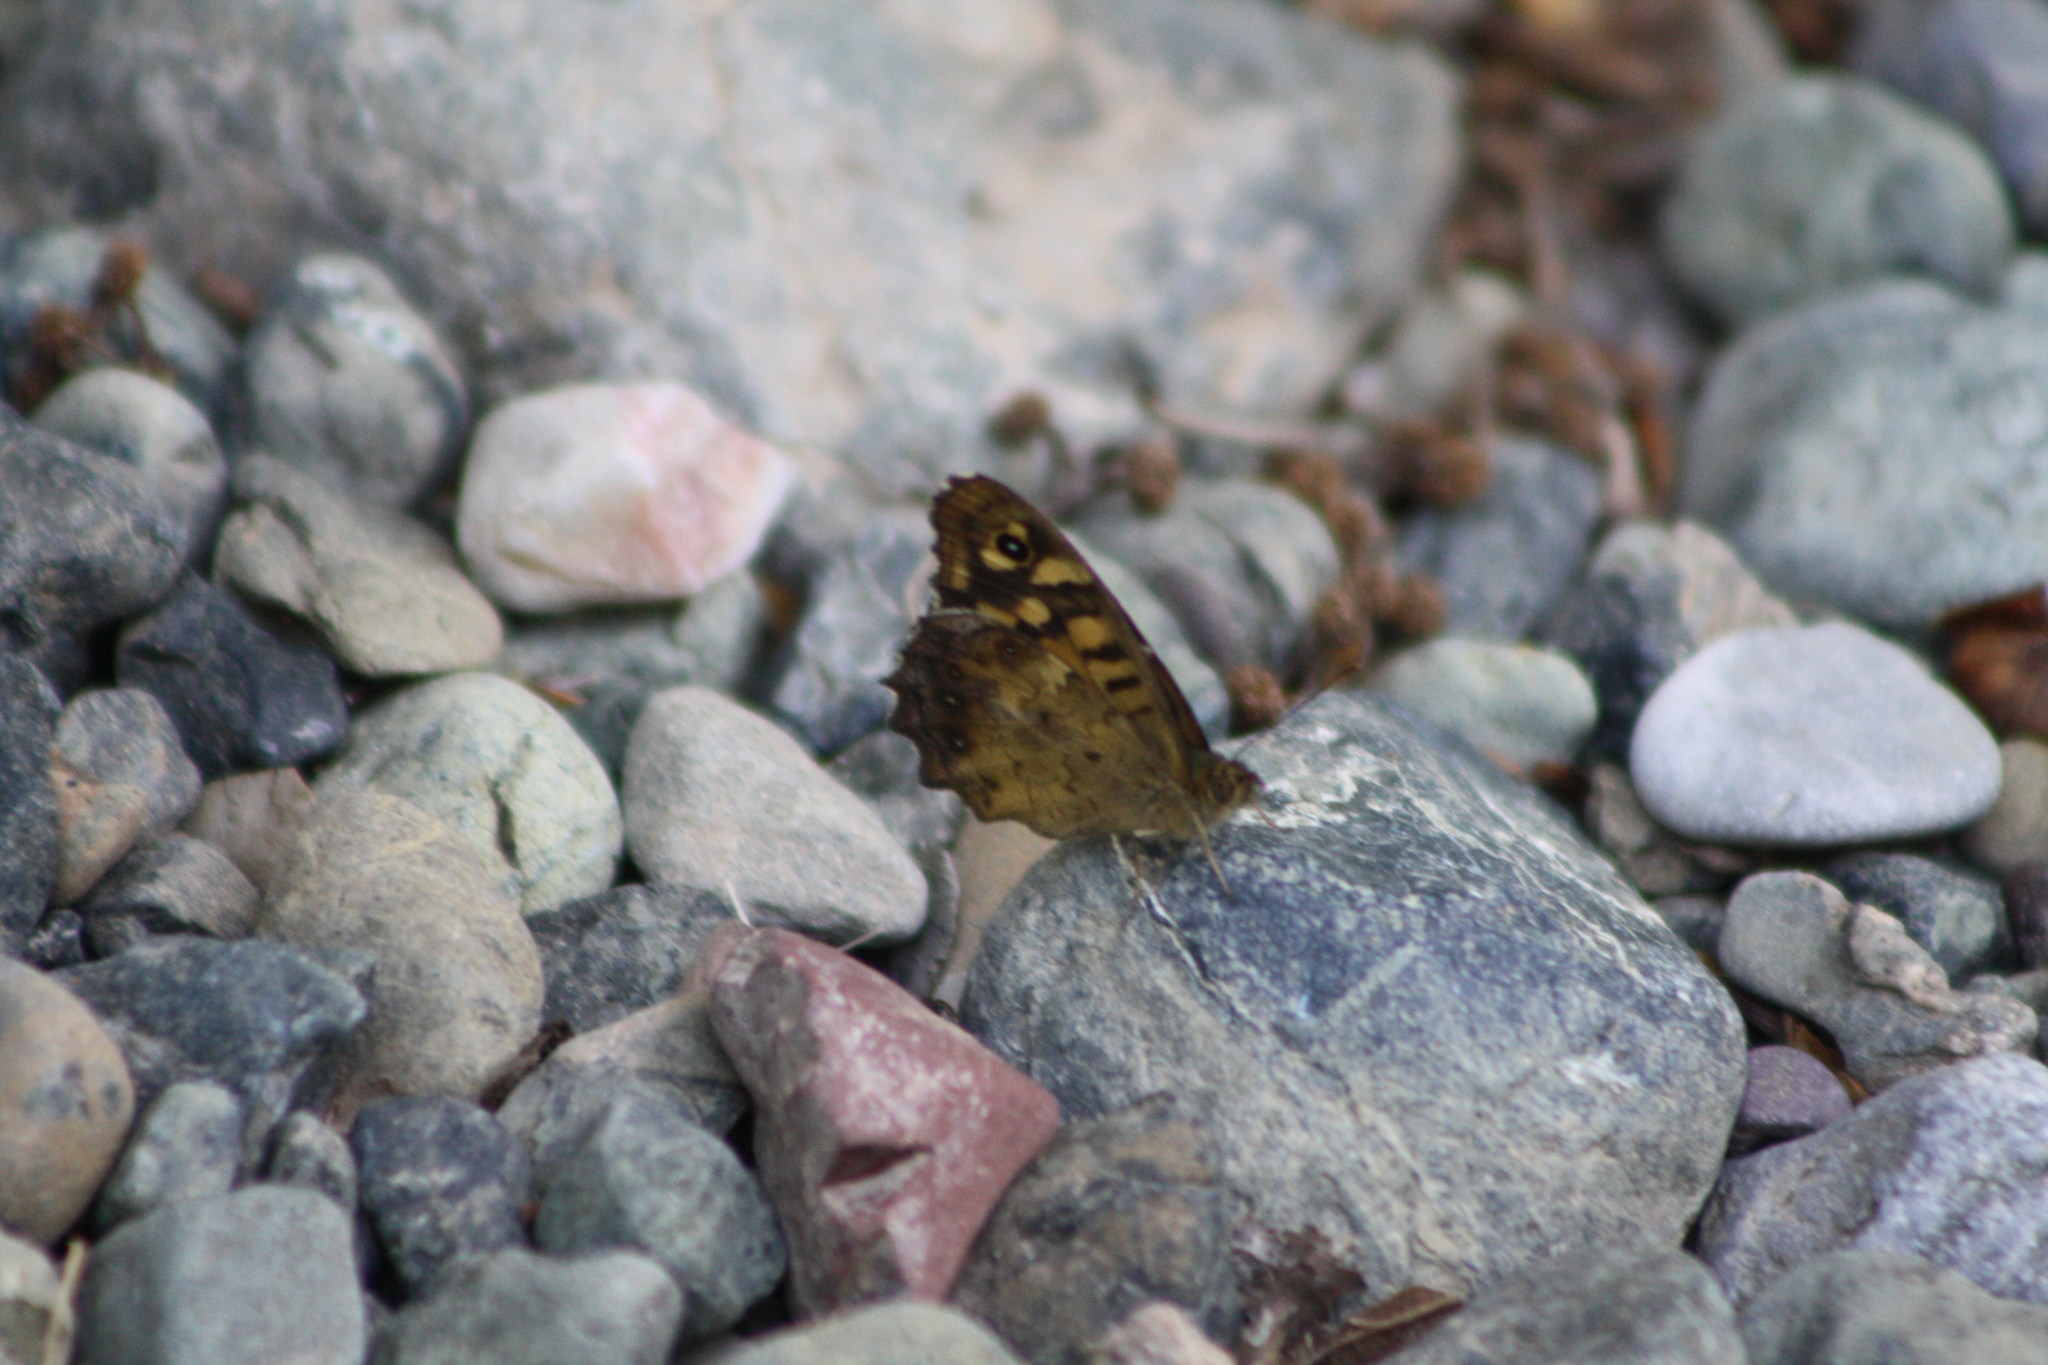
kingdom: Animalia
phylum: Arthropoda
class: Insecta
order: Lepidoptera
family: Nymphalidae
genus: Pararge
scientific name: Pararge aegeria
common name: Speckled wood
